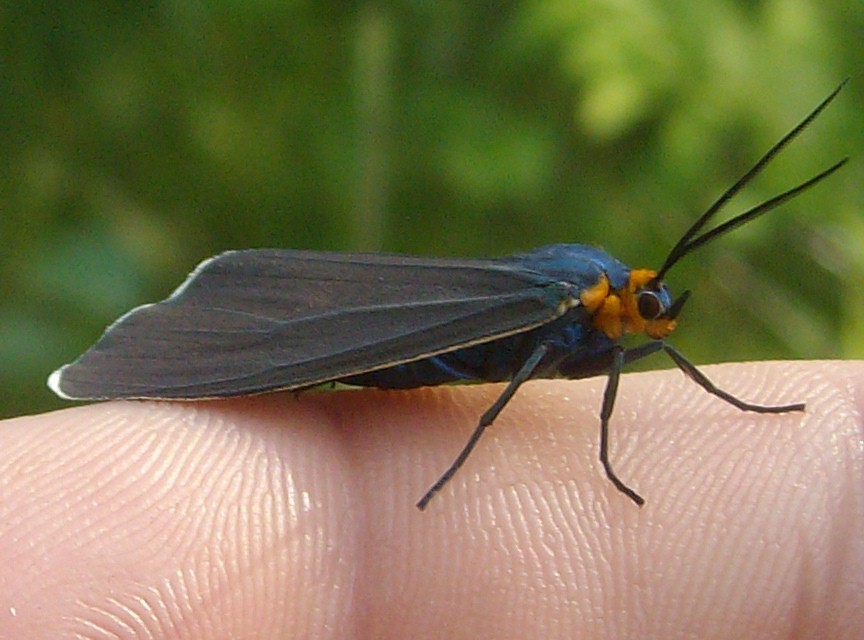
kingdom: Animalia
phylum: Arthropoda
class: Insecta
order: Lepidoptera
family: Erebidae
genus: Ctenucha
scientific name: Ctenucha virginica
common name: Virginia ctenucha moth
